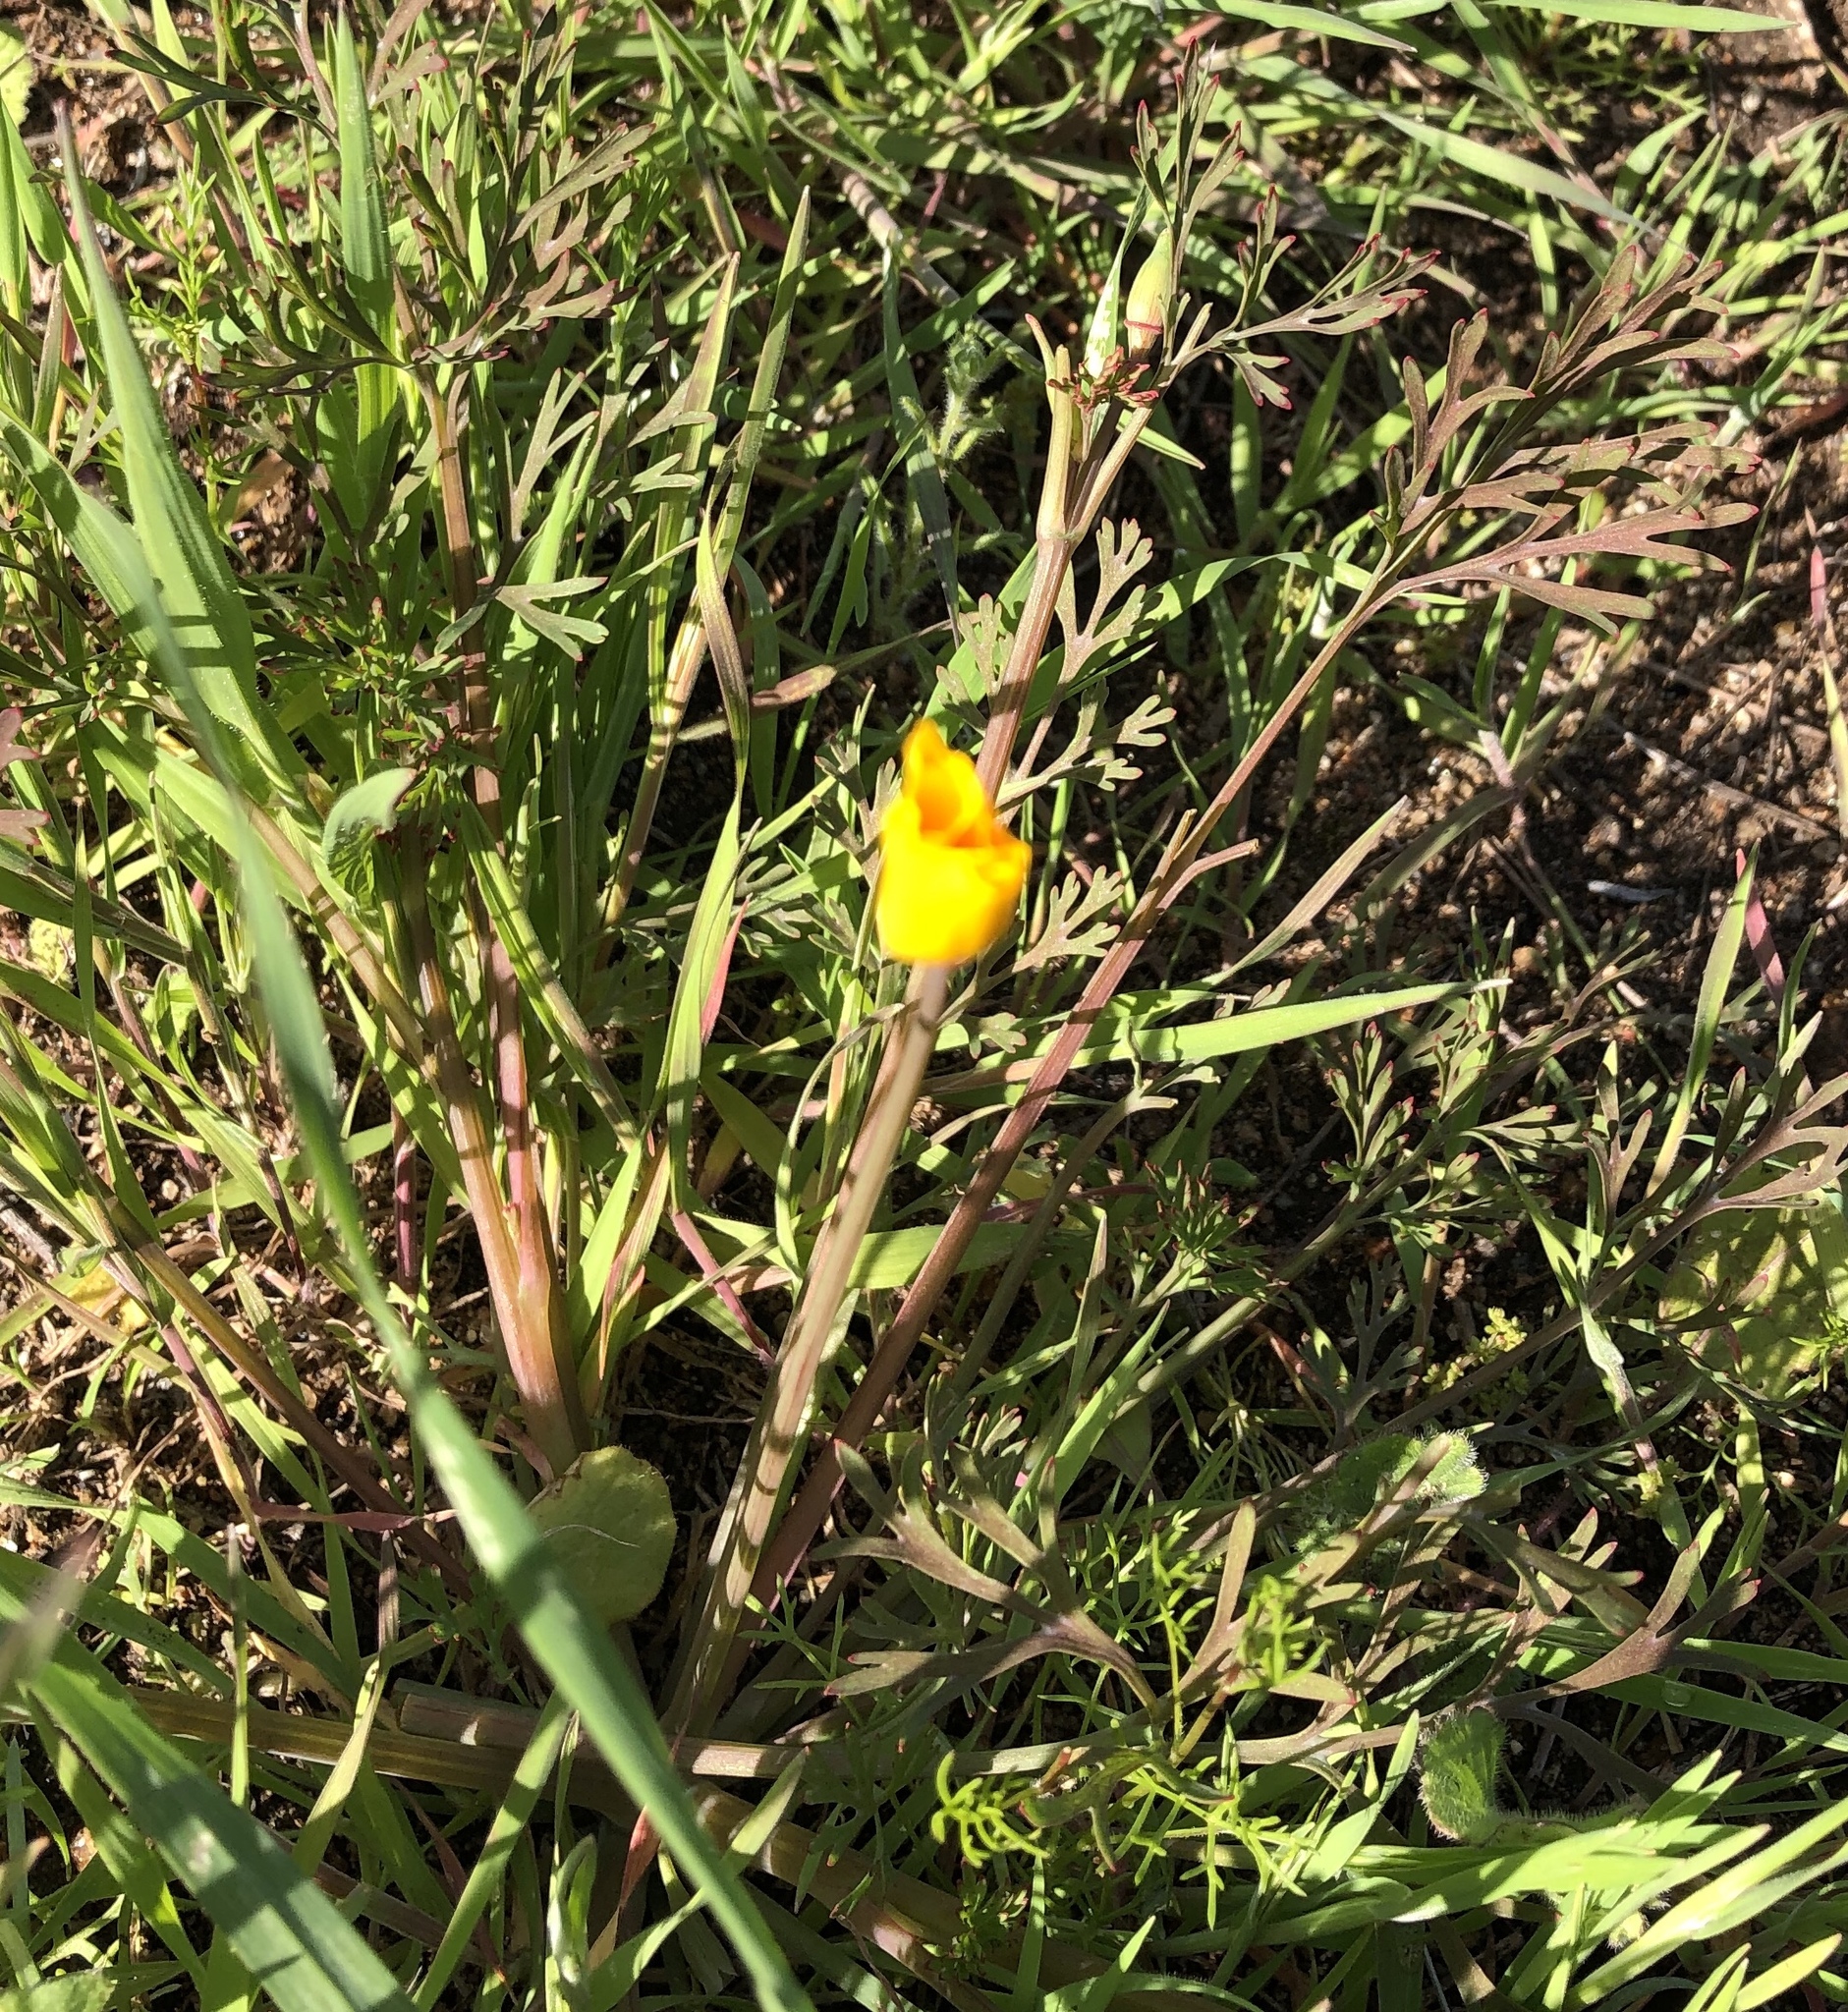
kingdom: Plantae
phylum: Tracheophyta
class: Magnoliopsida
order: Ranunculales
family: Papaveraceae
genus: Eschscholzia
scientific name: Eschscholzia californica
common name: California poppy
